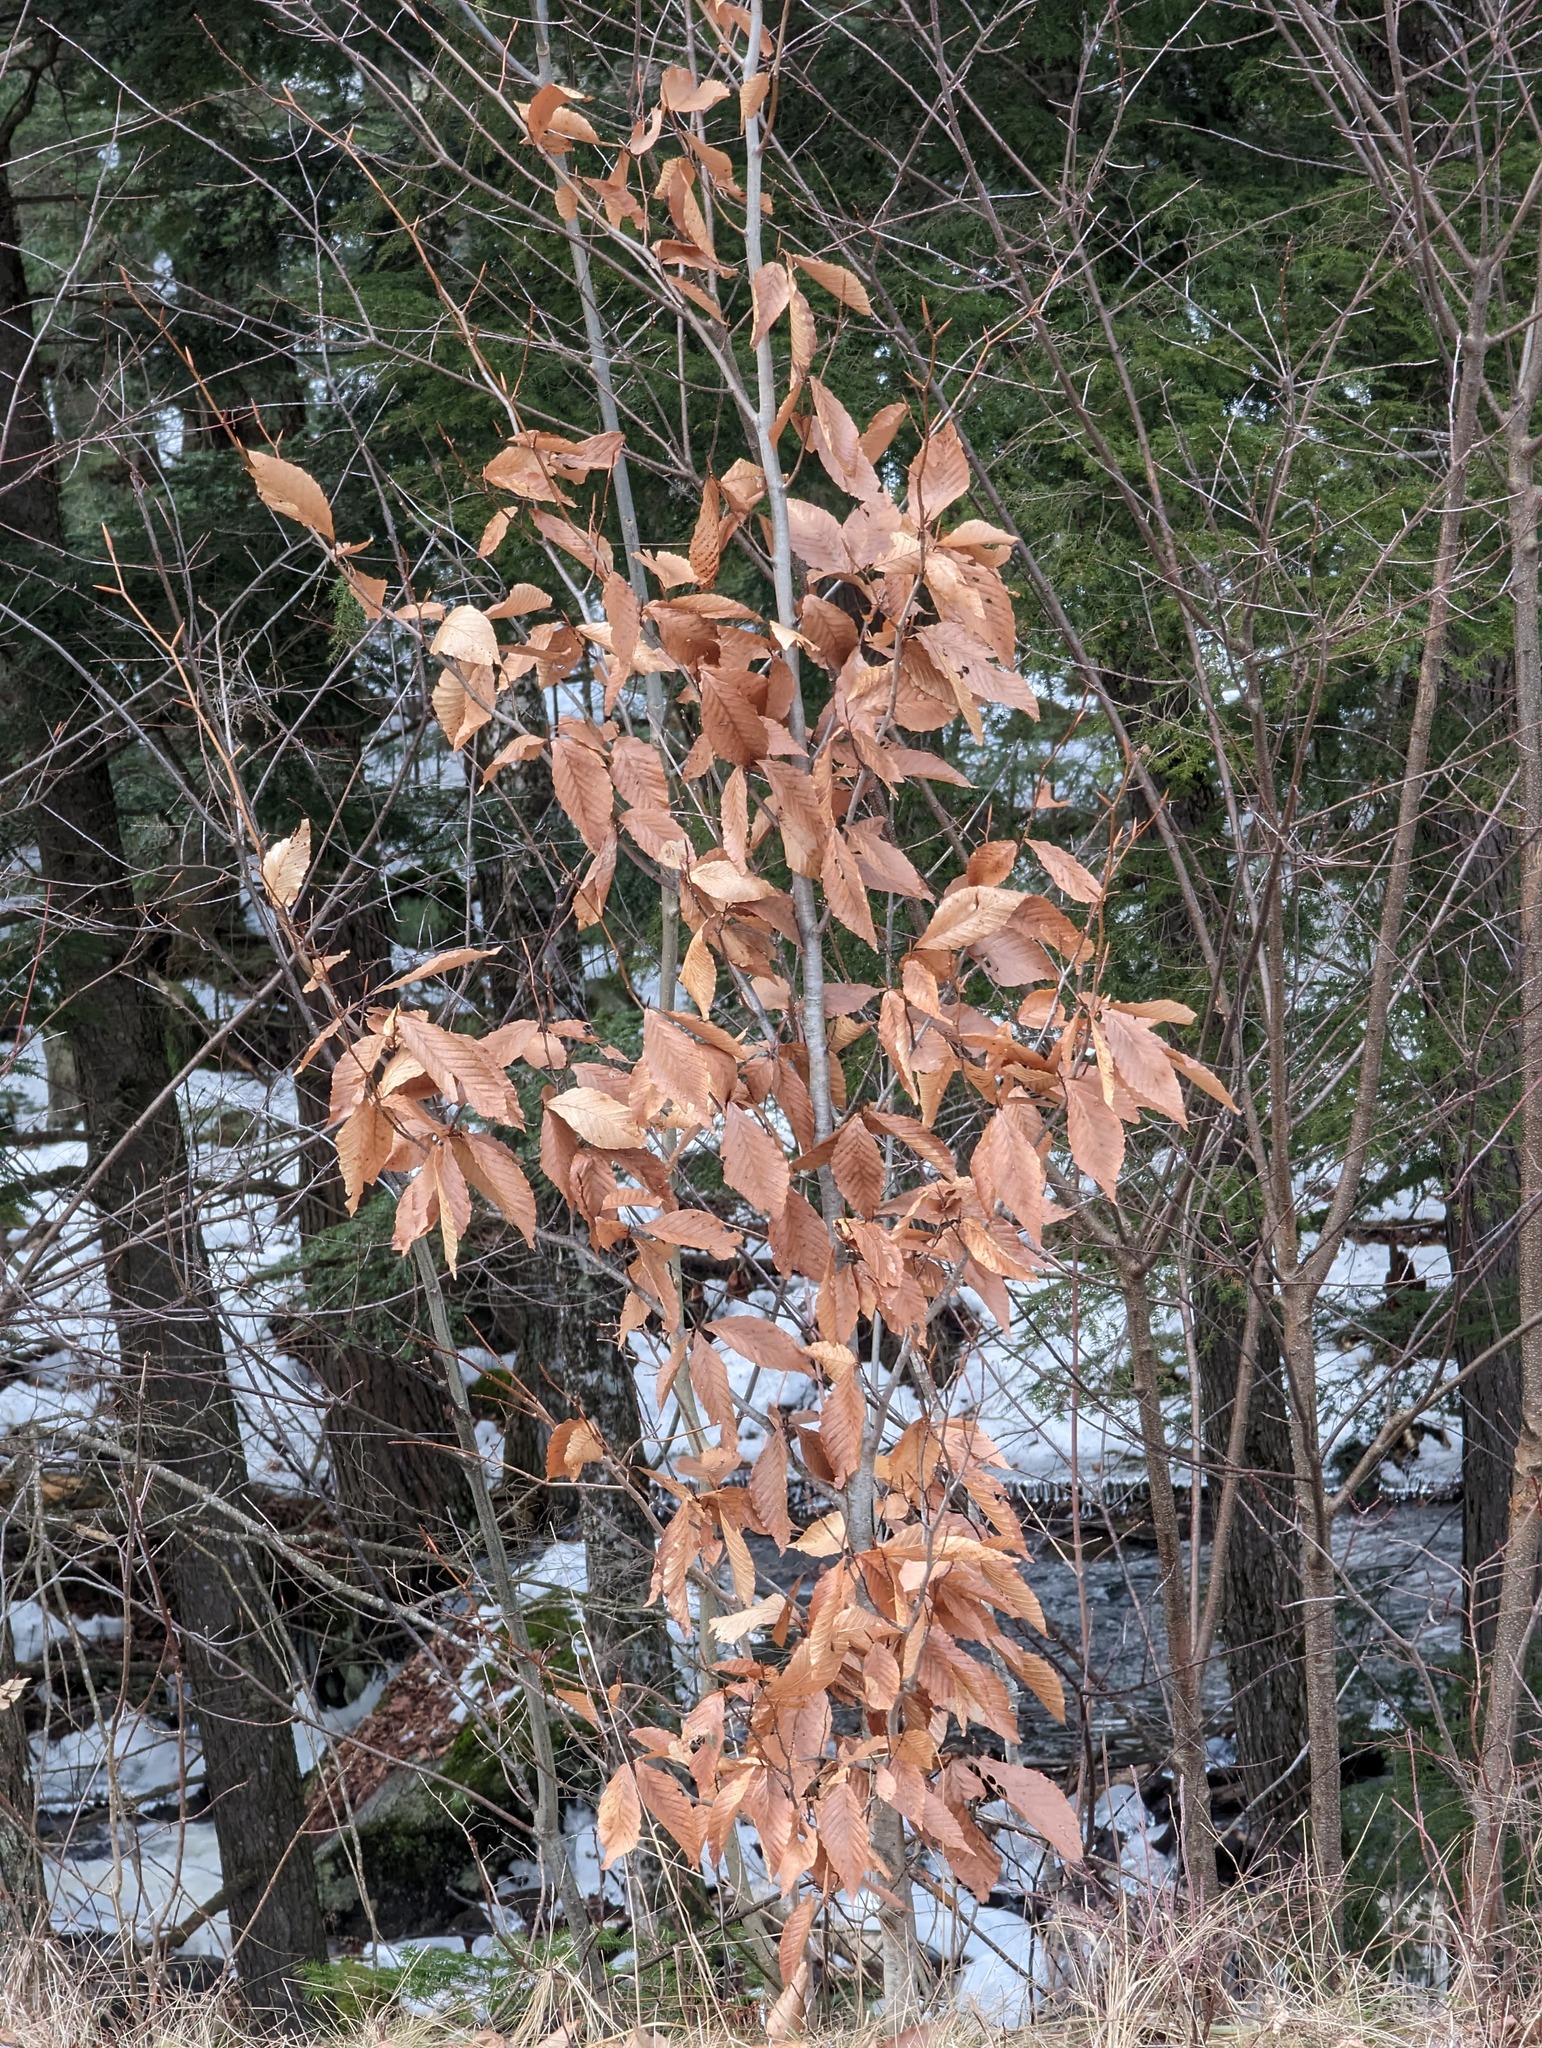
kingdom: Plantae
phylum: Tracheophyta
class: Magnoliopsida
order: Fagales
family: Fagaceae
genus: Fagus
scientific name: Fagus grandifolia
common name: American beech
